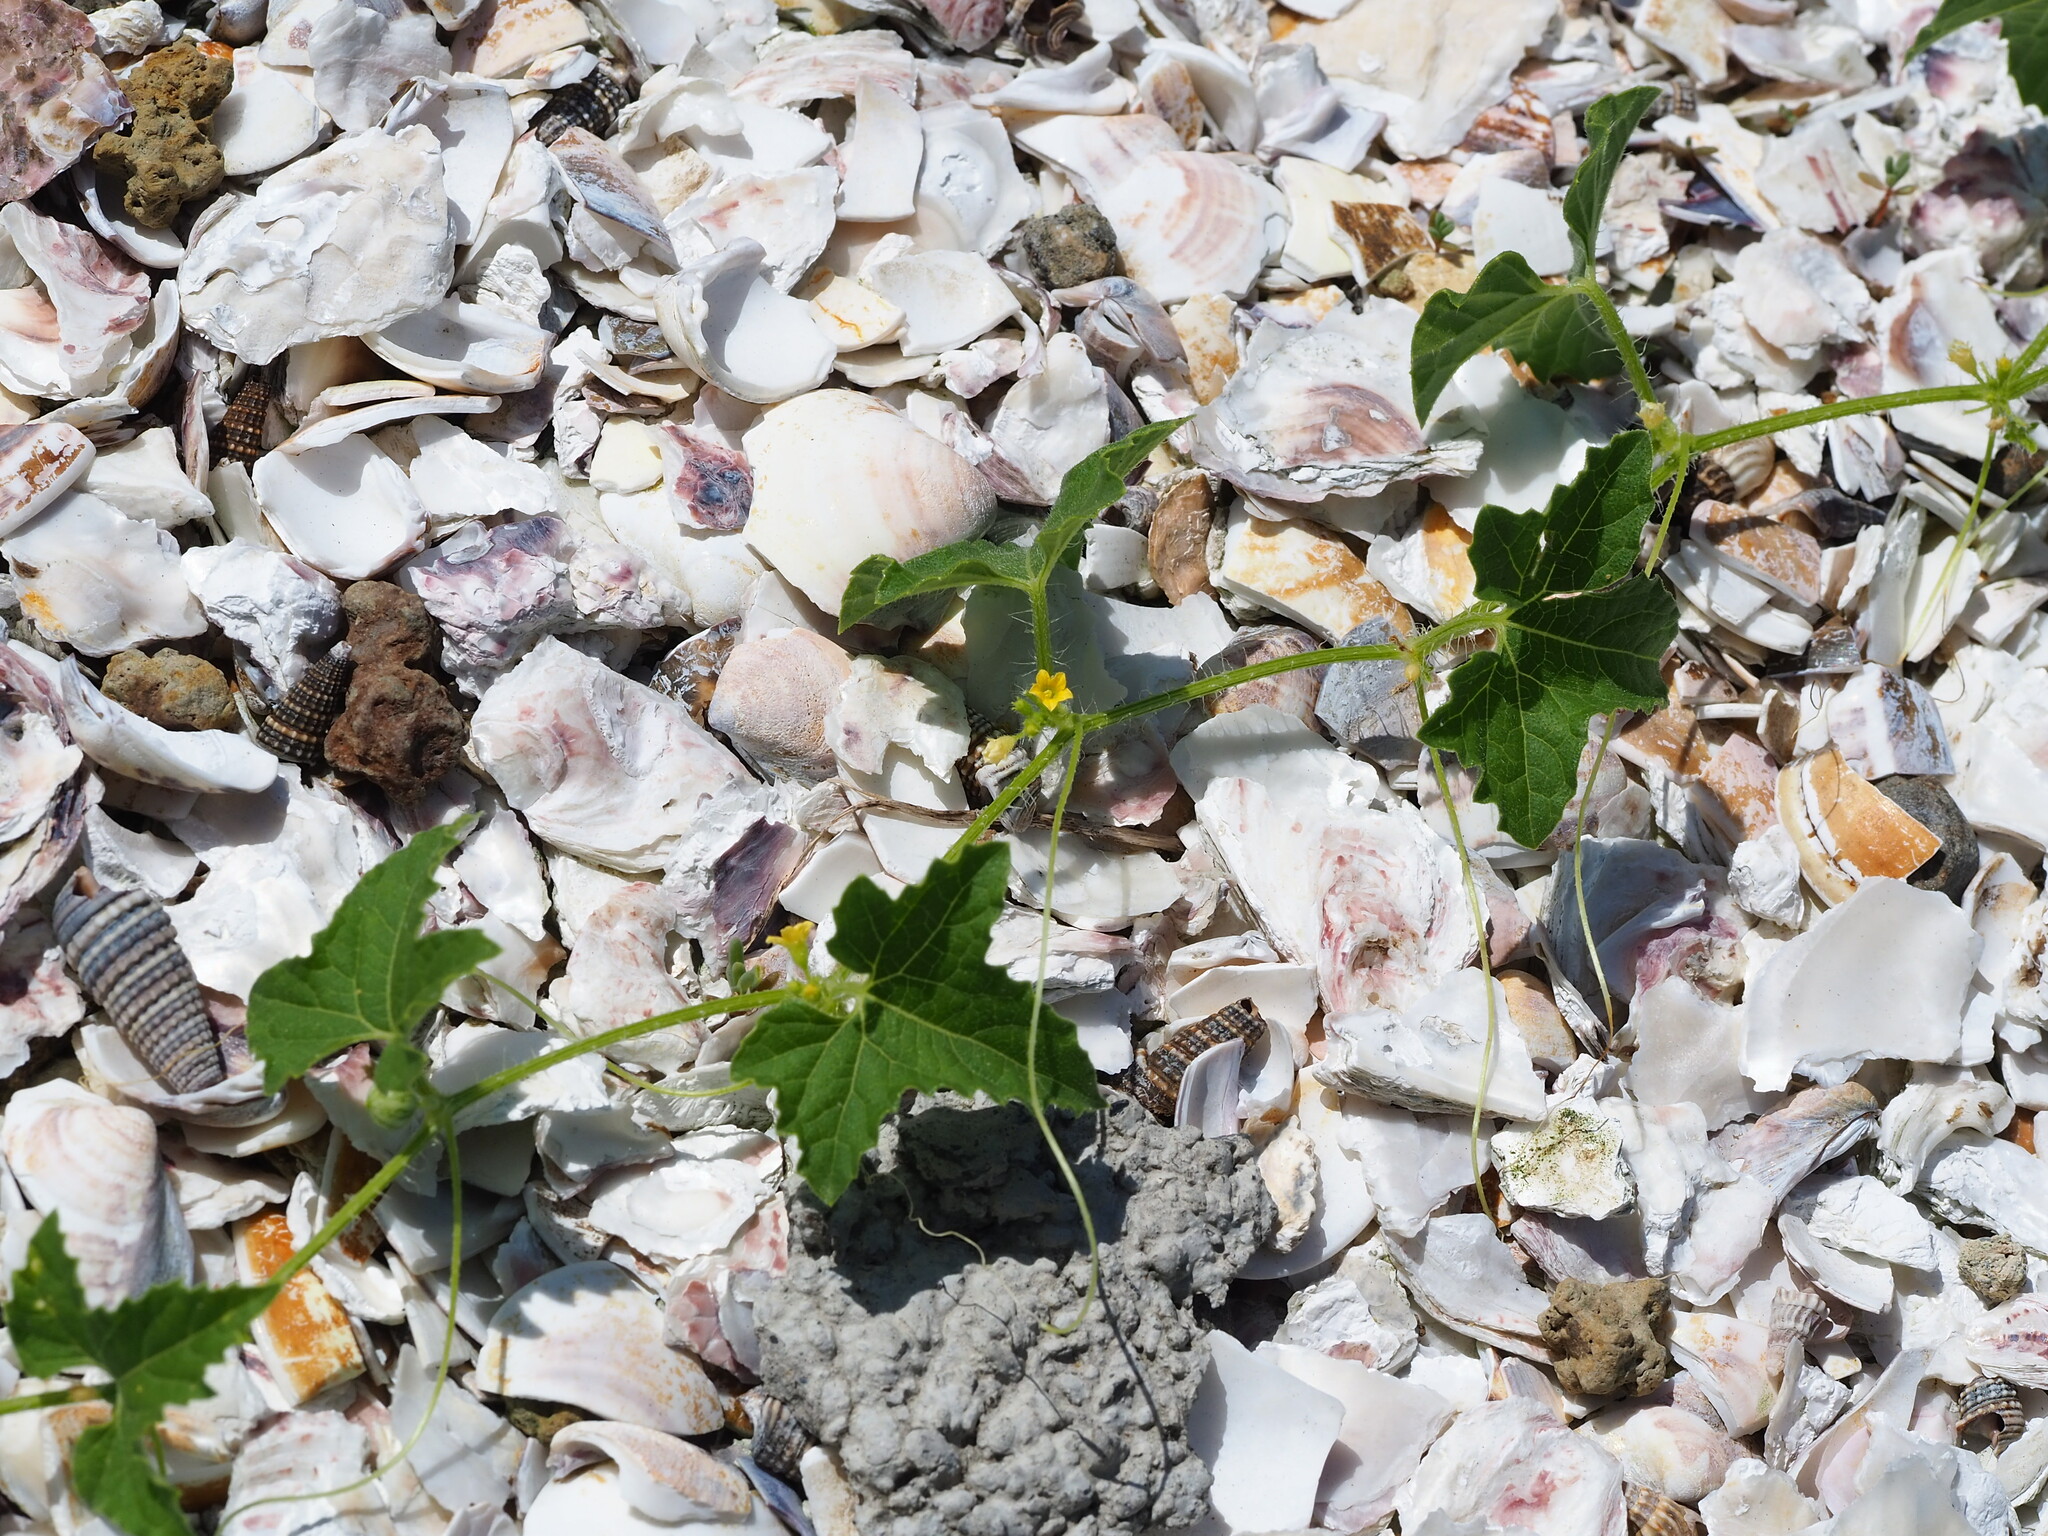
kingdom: Plantae
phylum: Tracheophyta
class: Magnoliopsida
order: Cucurbitales
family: Cucurbitaceae
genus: Cucumis
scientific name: Cucumis maderaspatanus
